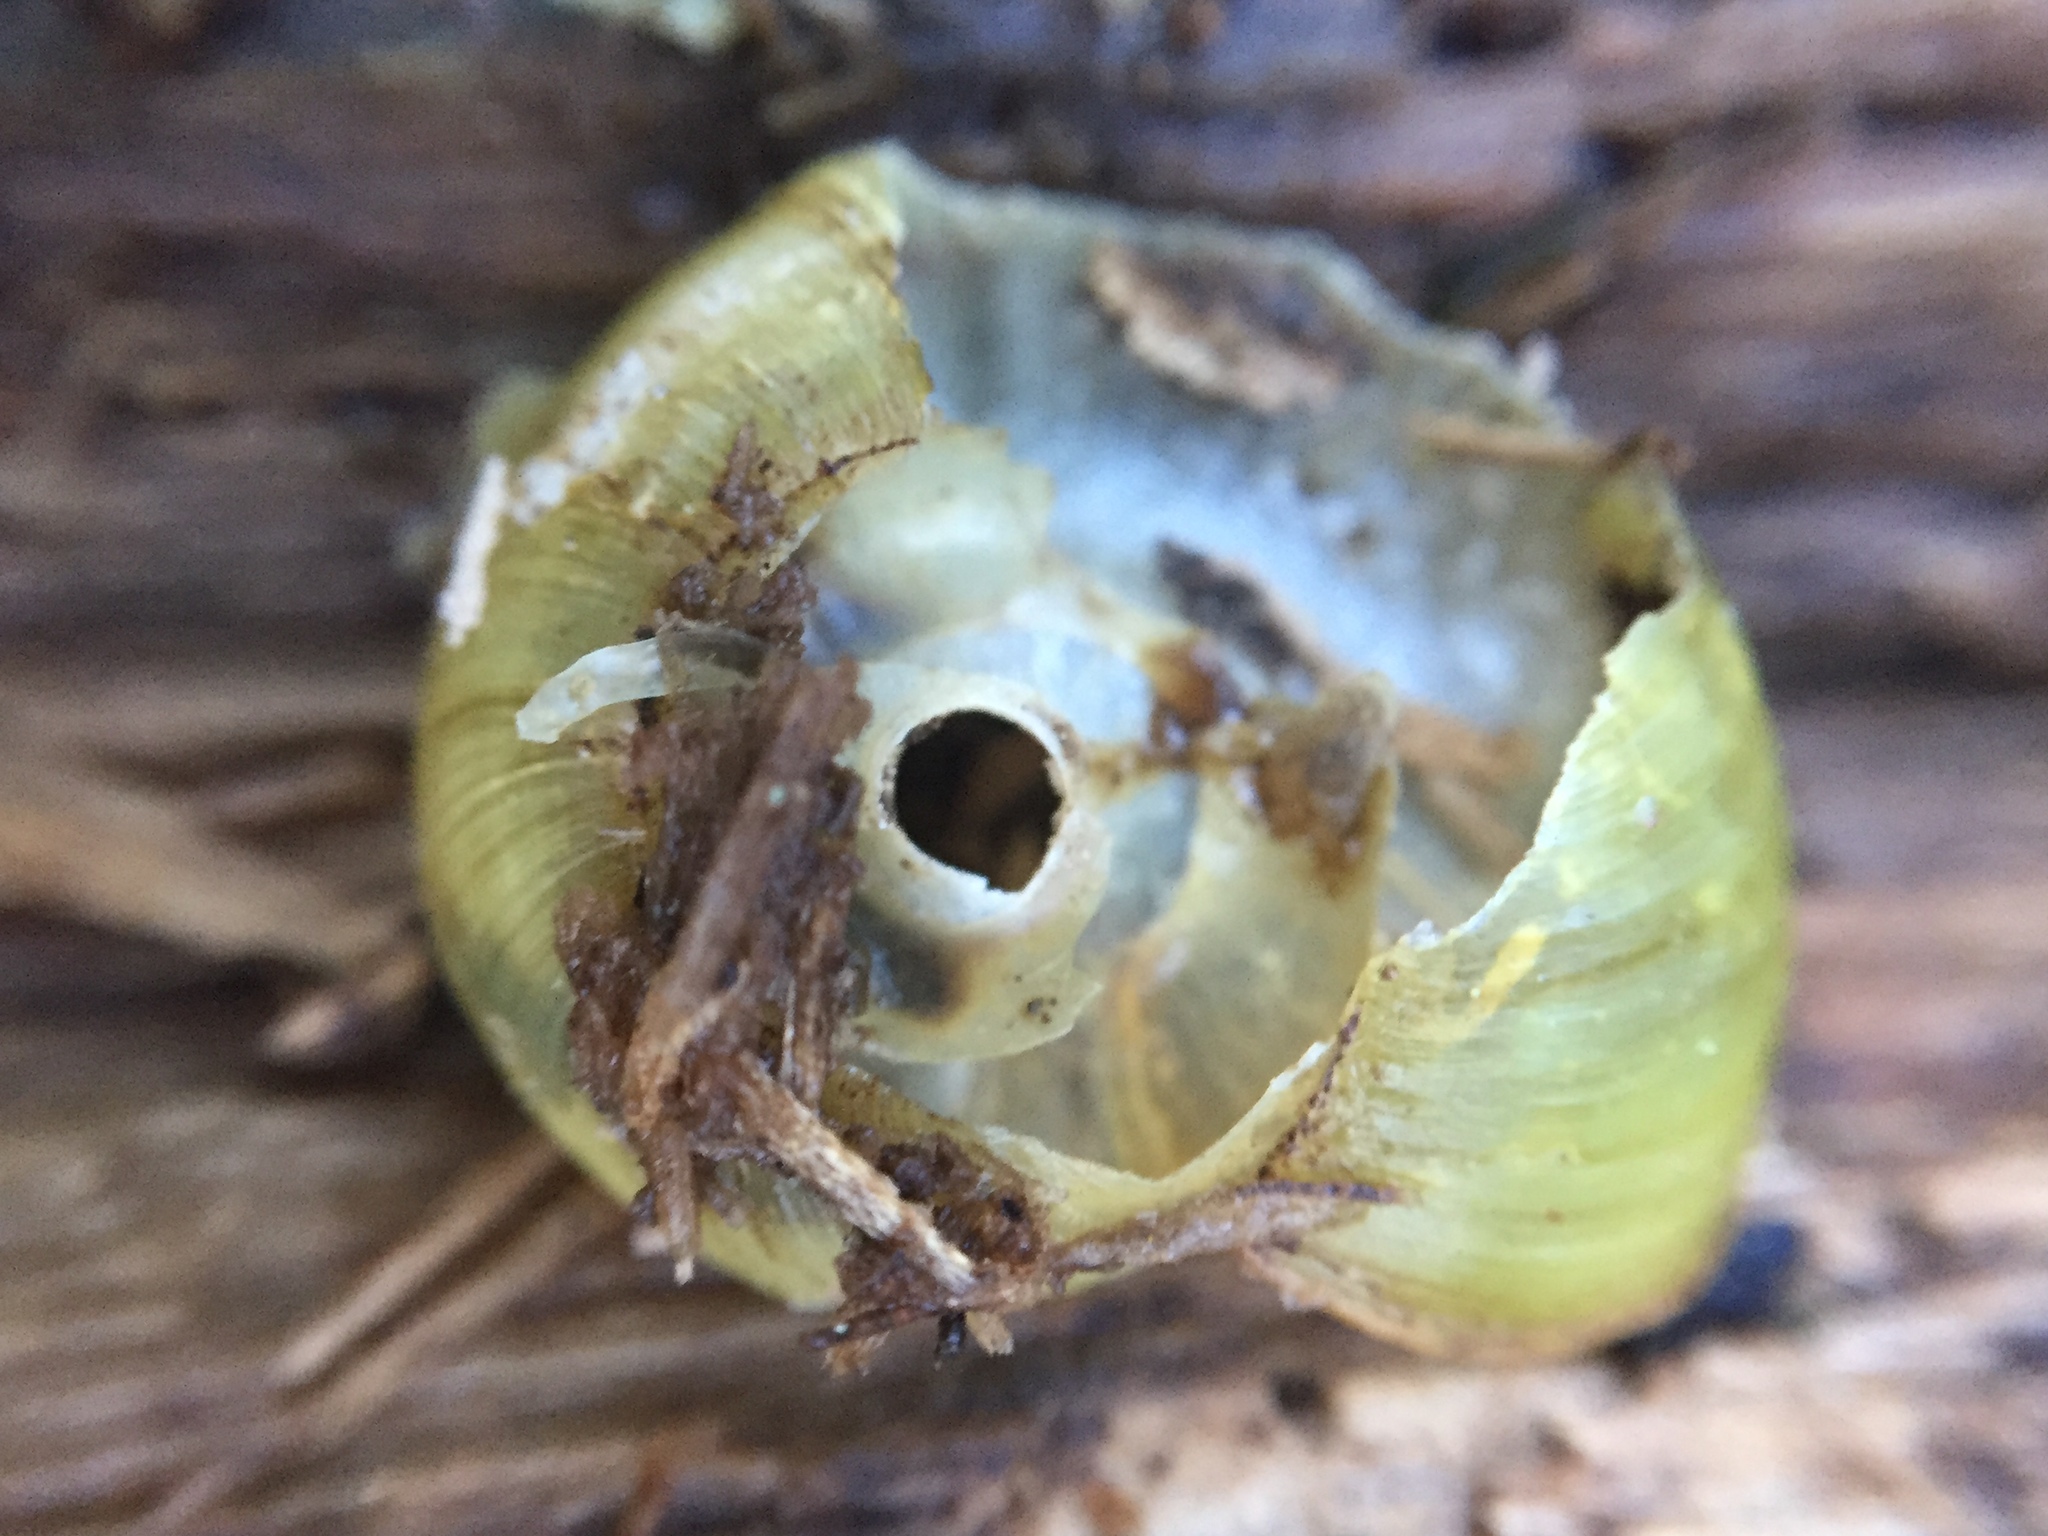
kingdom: Animalia
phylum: Mollusca
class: Gastropoda
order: Stylommatophora
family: Haplotrematidae
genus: Haplotrema
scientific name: Haplotrema minimum
